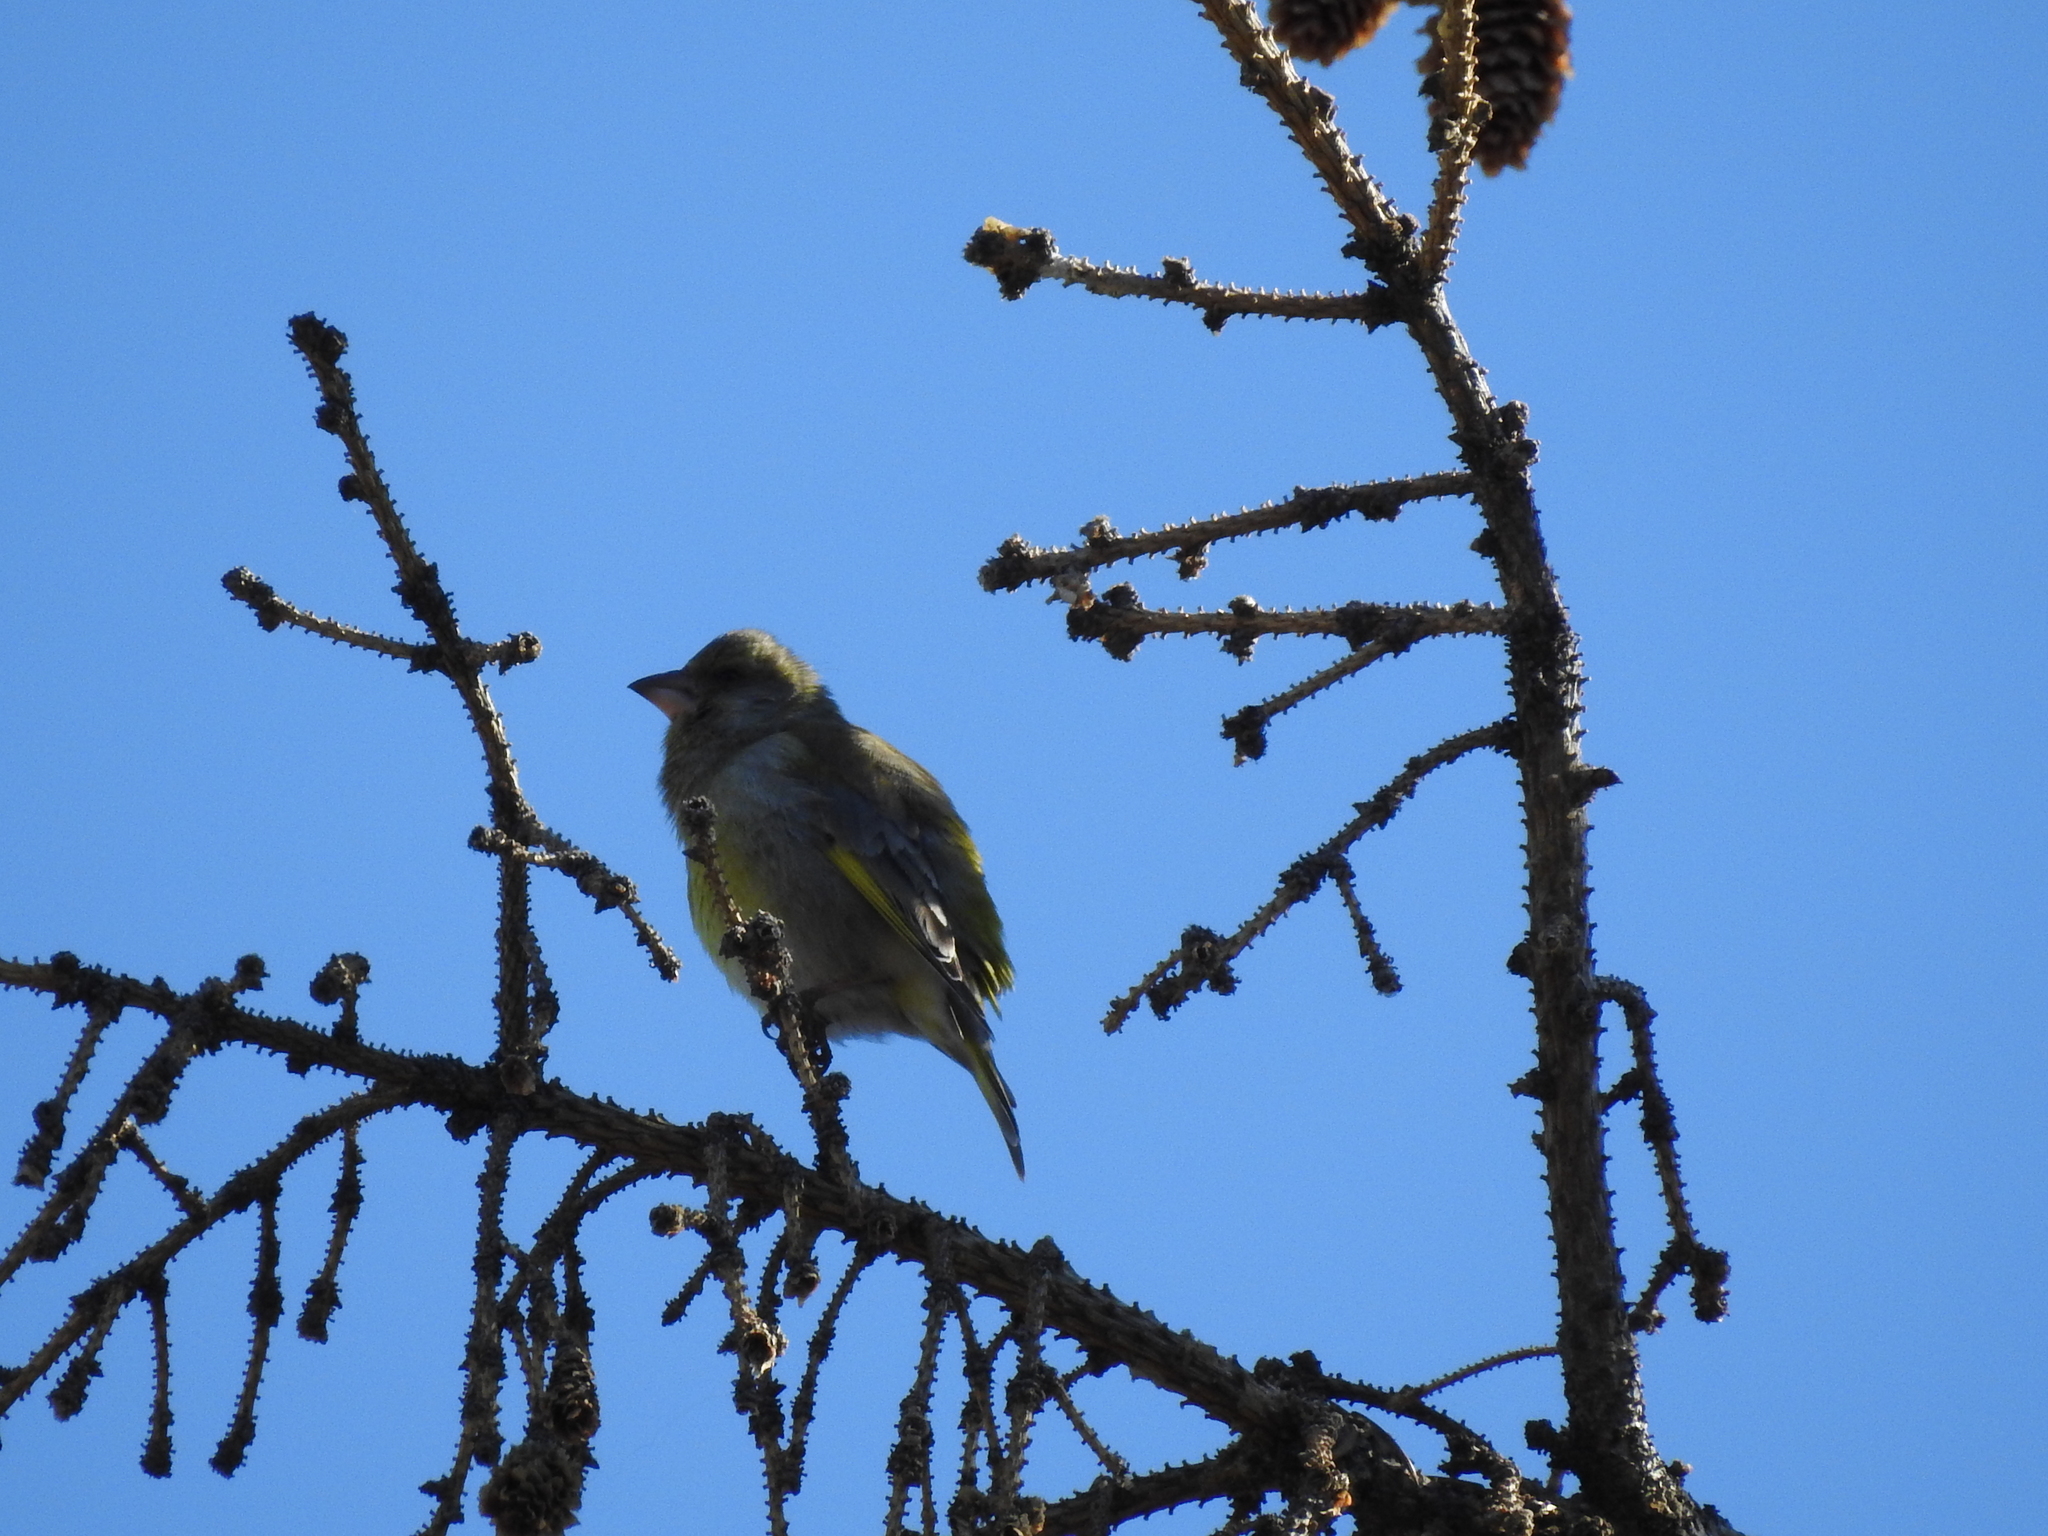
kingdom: Plantae
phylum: Tracheophyta
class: Liliopsida
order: Poales
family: Poaceae
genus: Chloris
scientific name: Chloris chloris
